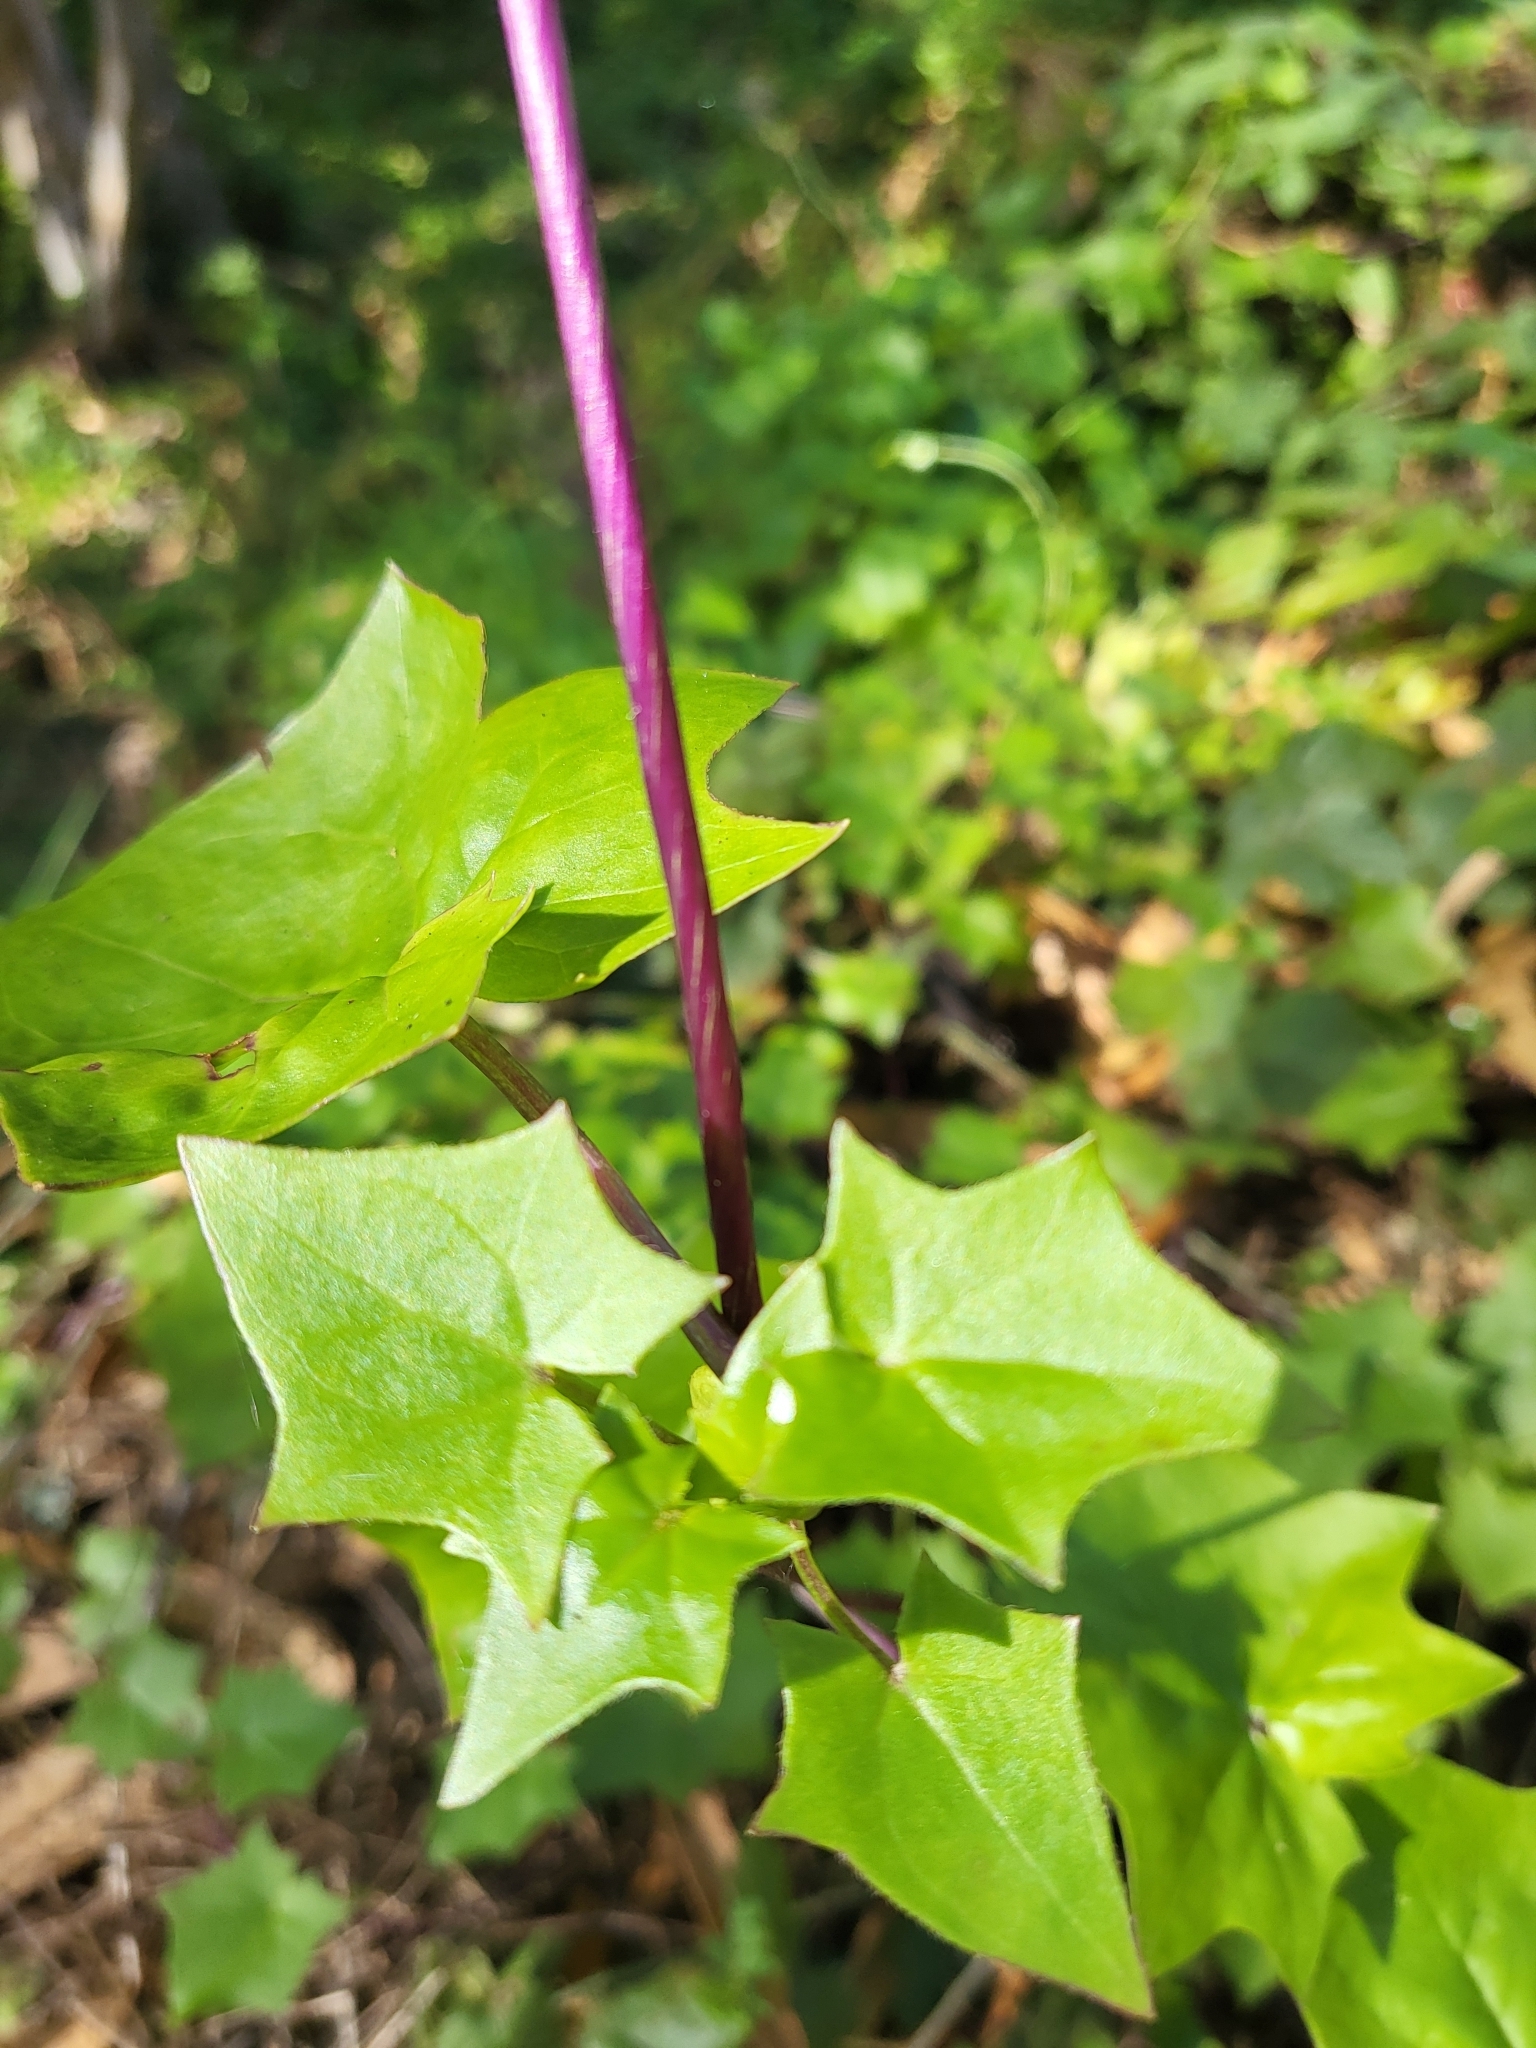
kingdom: Plantae
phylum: Tracheophyta
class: Magnoliopsida
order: Asterales
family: Asteraceae
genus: Delairea
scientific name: Delairea odorata
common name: Cape-ivy
